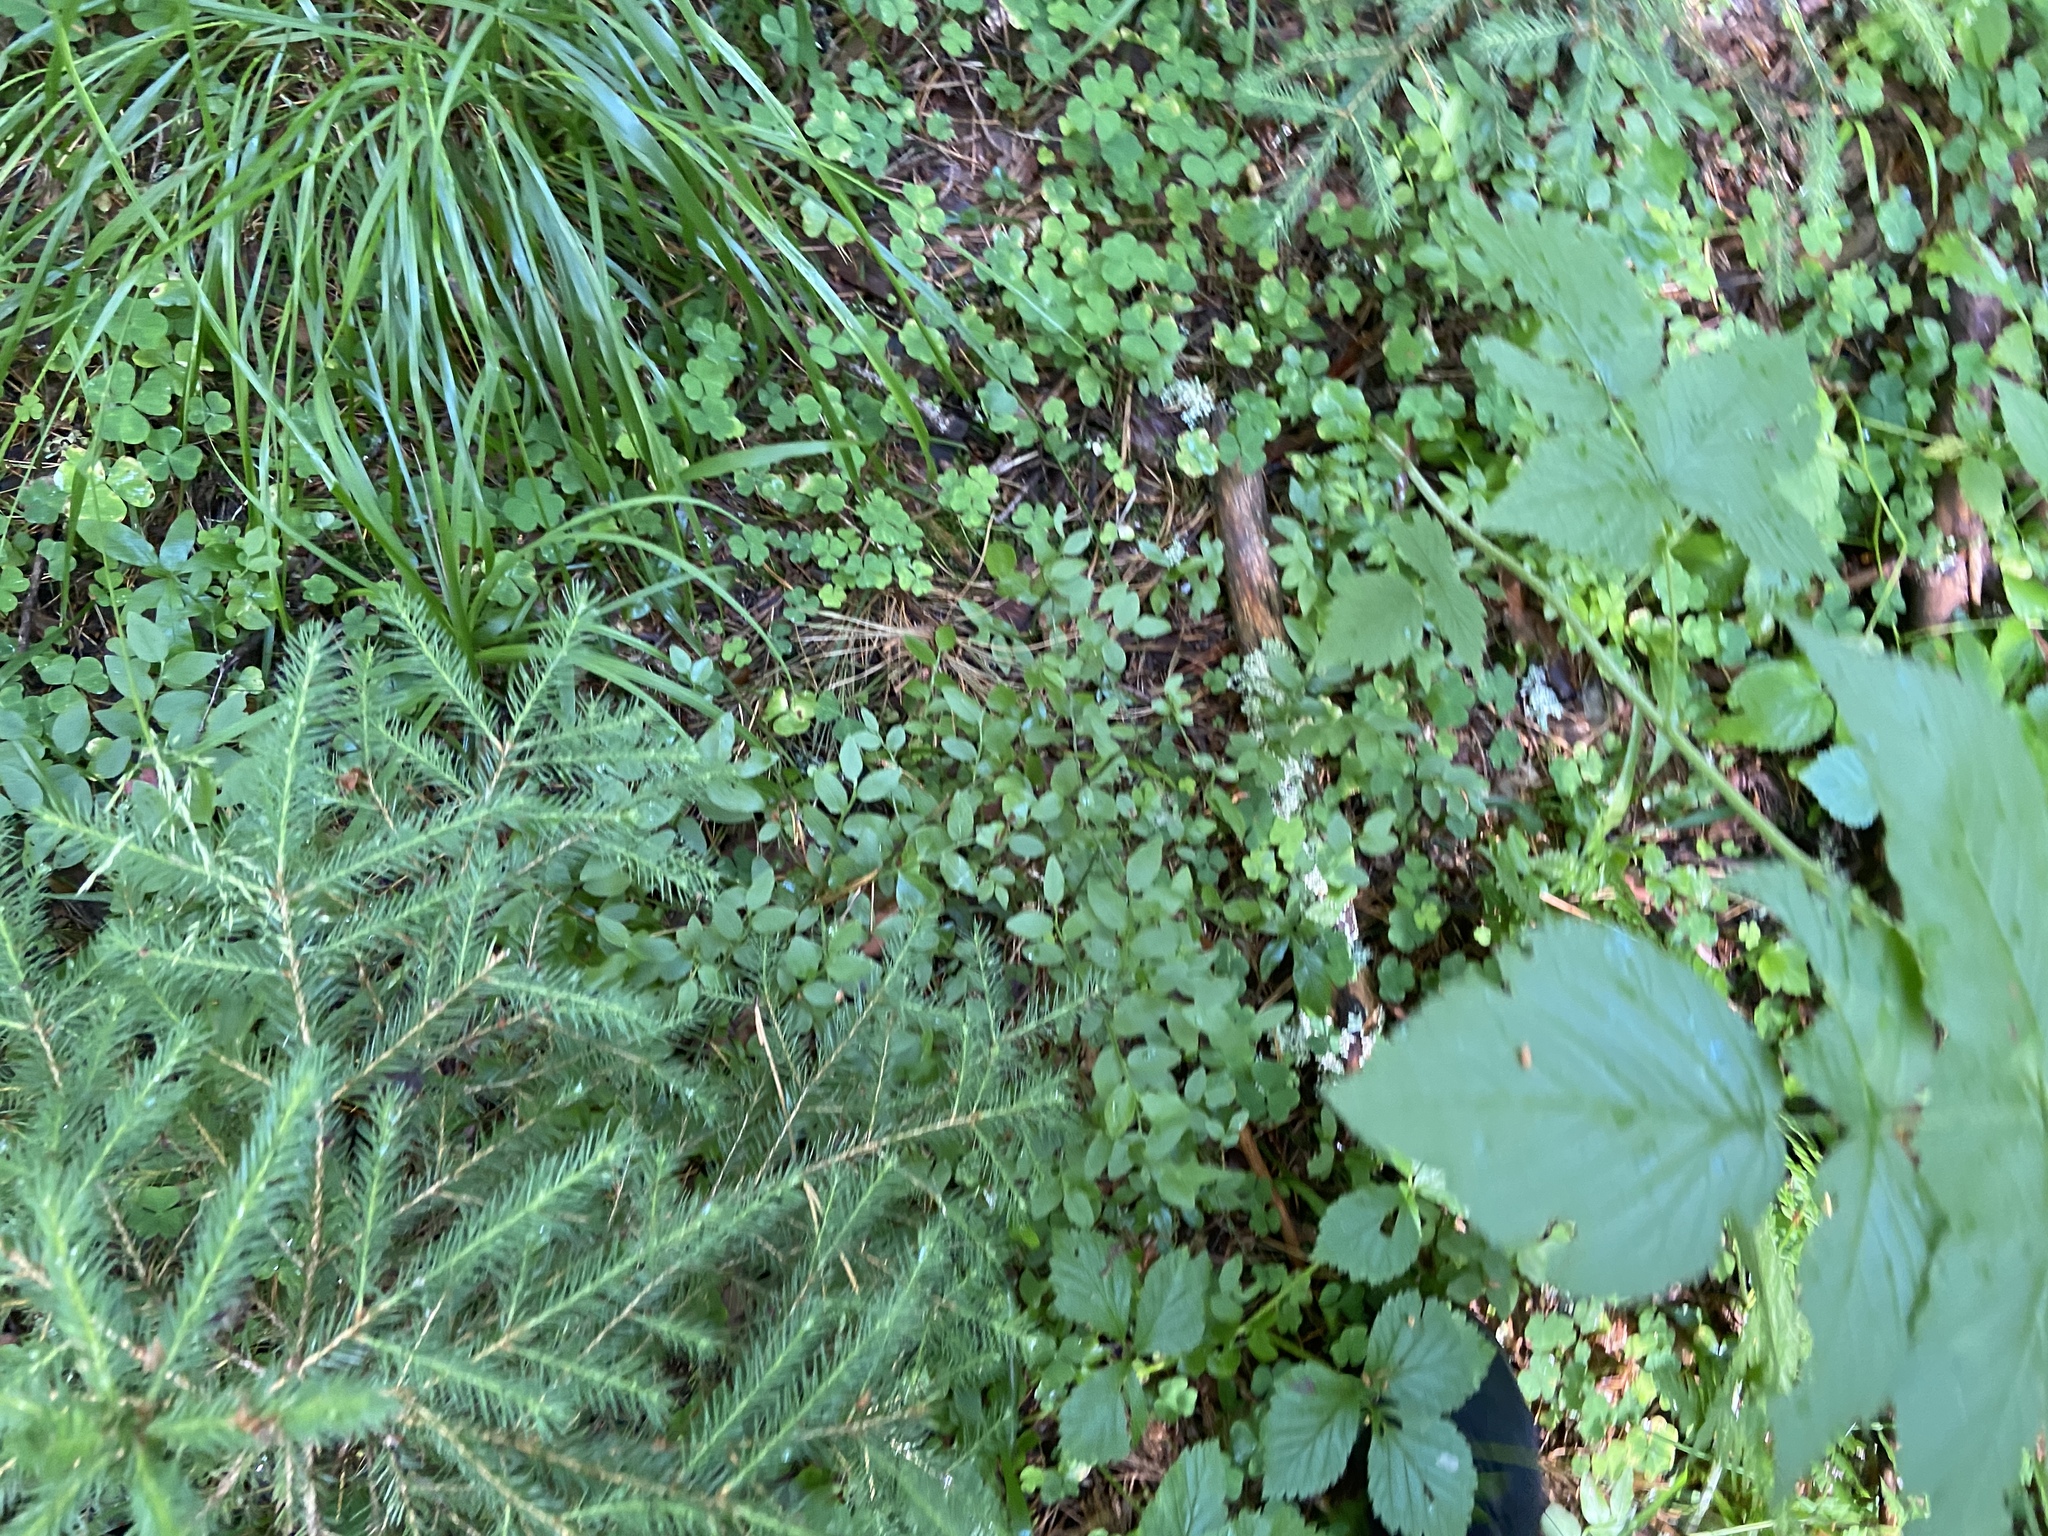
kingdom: Plantae
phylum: Tracheophyta
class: Pinopsida
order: Pinales
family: Pinaceae
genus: Picea
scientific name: Picea abies
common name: Norway spruce
